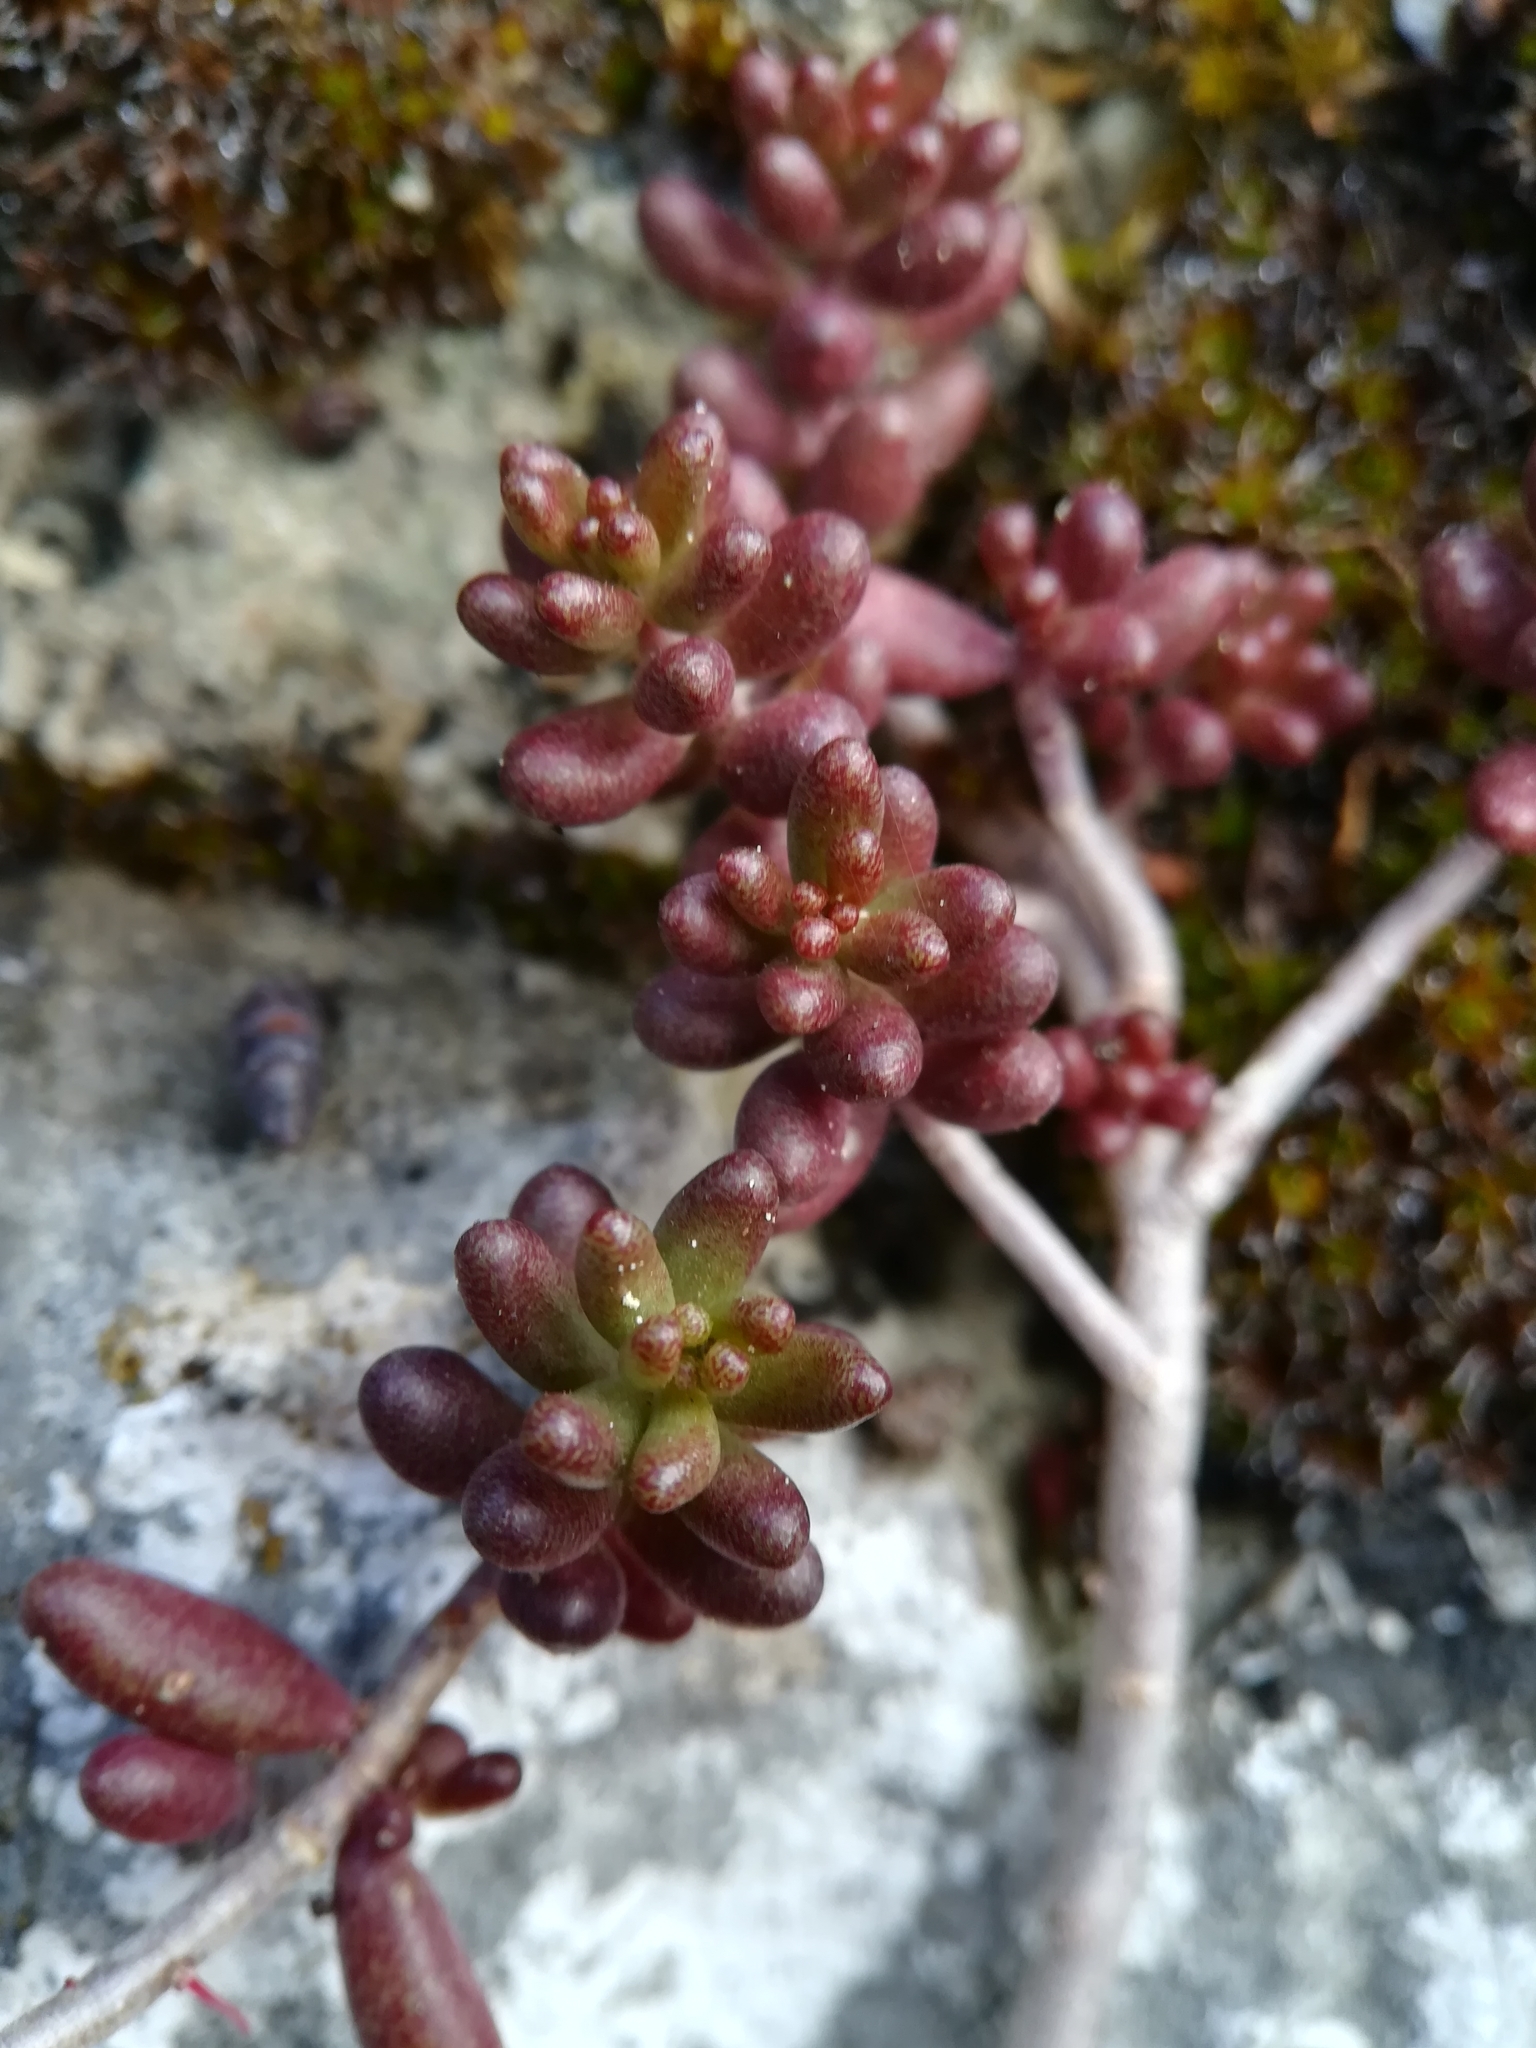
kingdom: Plantae
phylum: Tracheophyta
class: Magnoliopsida
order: Saxifragales
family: Crassulaceae
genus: Sedum
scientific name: Sedum album
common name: White stonecrop
